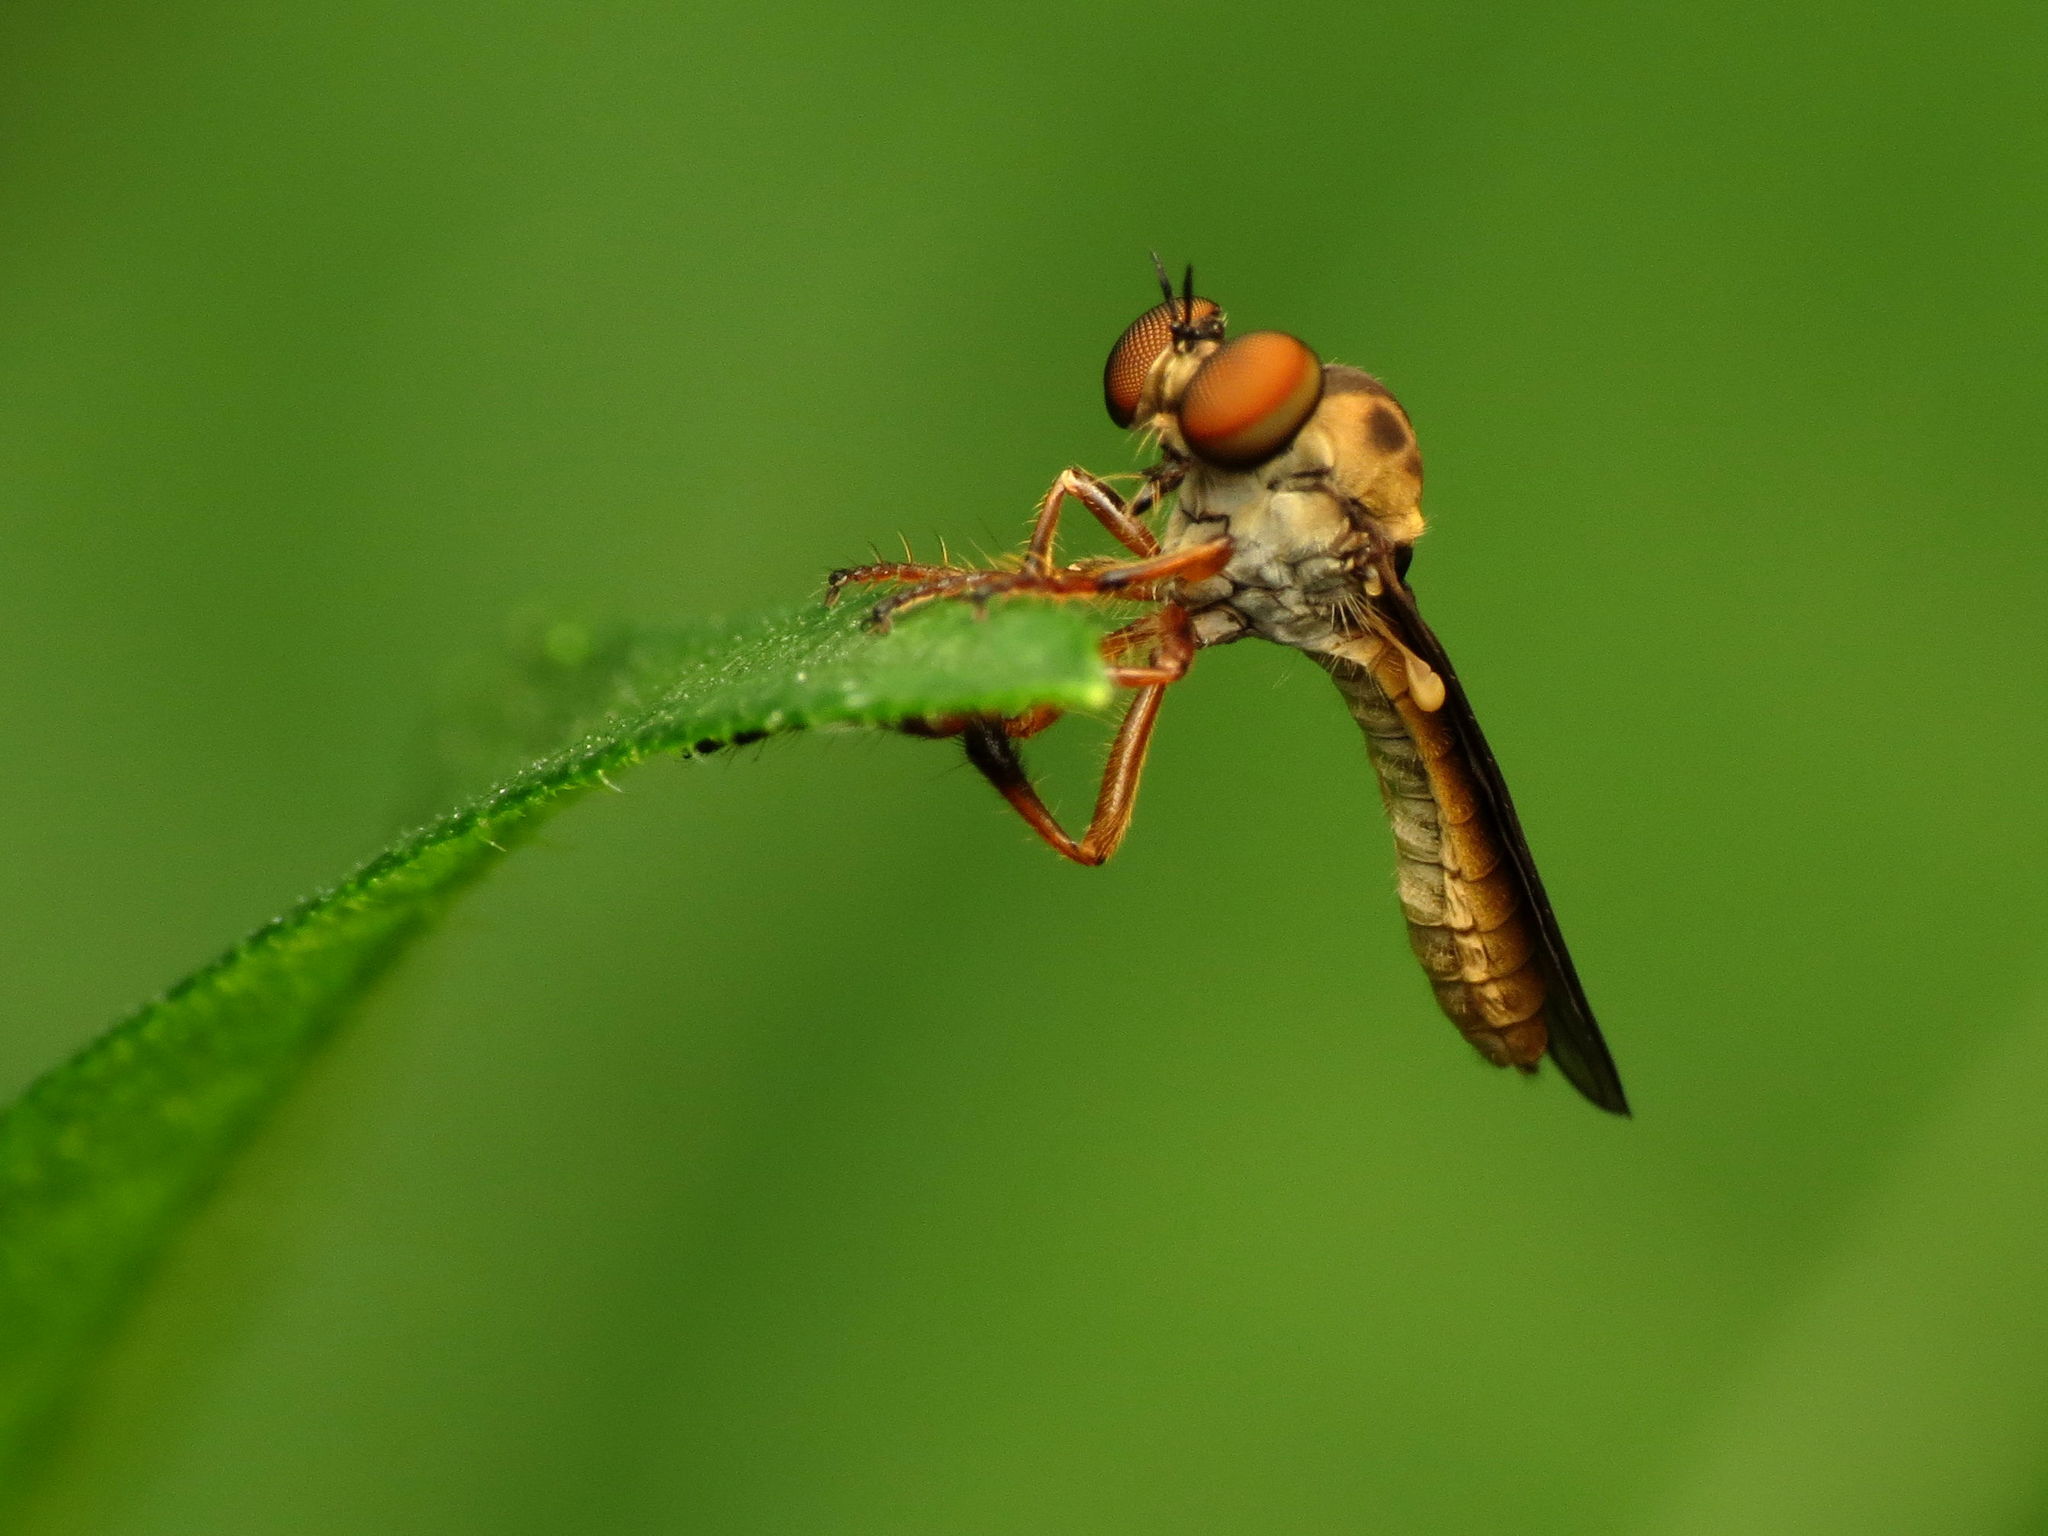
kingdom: Animalia
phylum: Arthropoda
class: Insecta
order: Diptera
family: Asilidae
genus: Holcocephala
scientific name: Holcocephala
